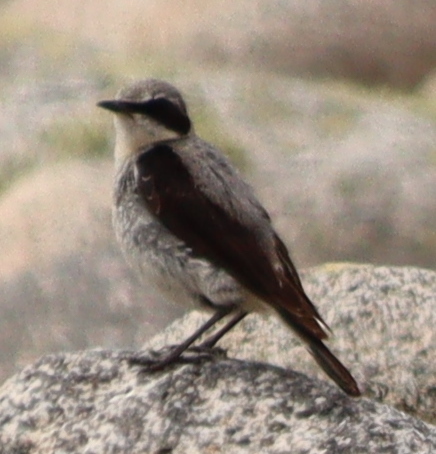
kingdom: Animalia
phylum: Chordata
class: Aves
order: Passeriformes
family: Muscicapidae
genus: Oenanthe
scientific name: Oenanthe oenanthe
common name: Northern wheatear
